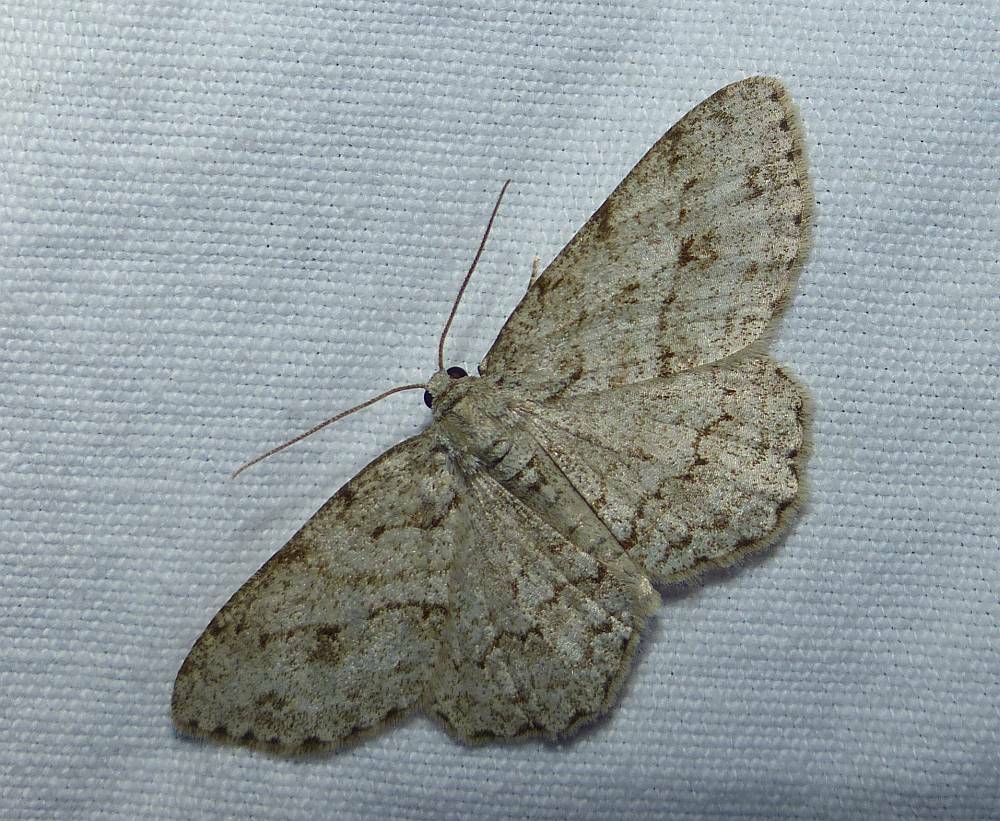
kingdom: Animalia
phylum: Arthropoda
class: Insecta
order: Lepidoptera
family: Geometridae
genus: Ectropis
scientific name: Ectropis crepuscularia
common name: Engrailed
